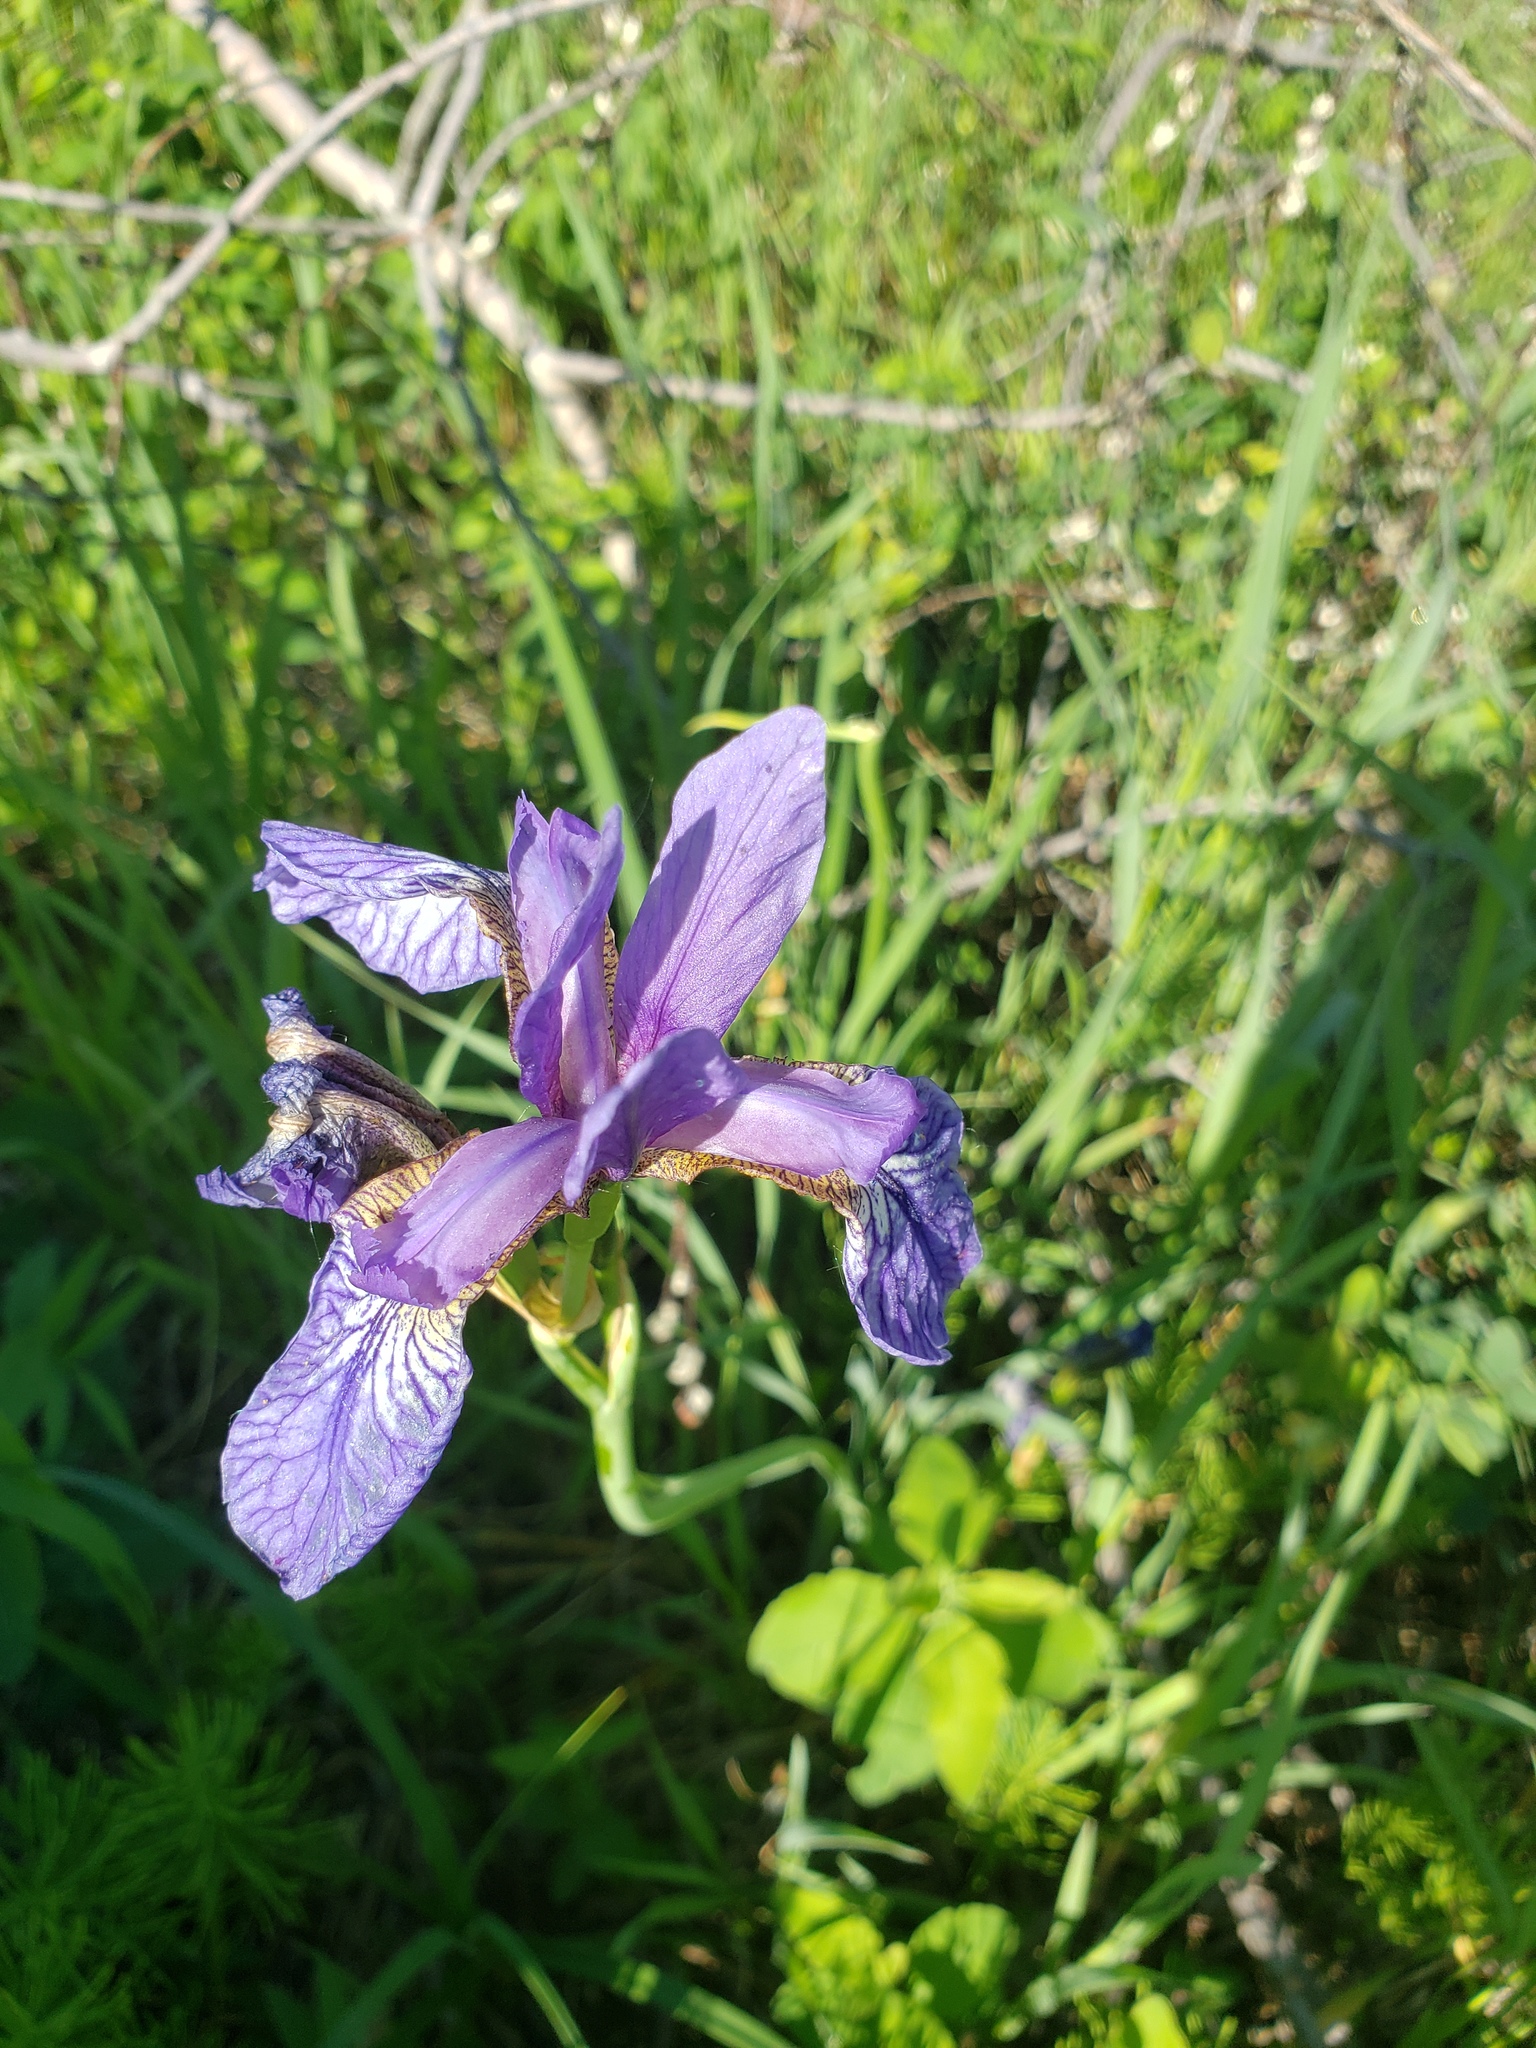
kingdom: Plantae
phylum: Tracheophyta
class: Liliopsida
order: Asparagales
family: Iridaceae
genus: Iris
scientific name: Iris versicolor
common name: Purple iris
